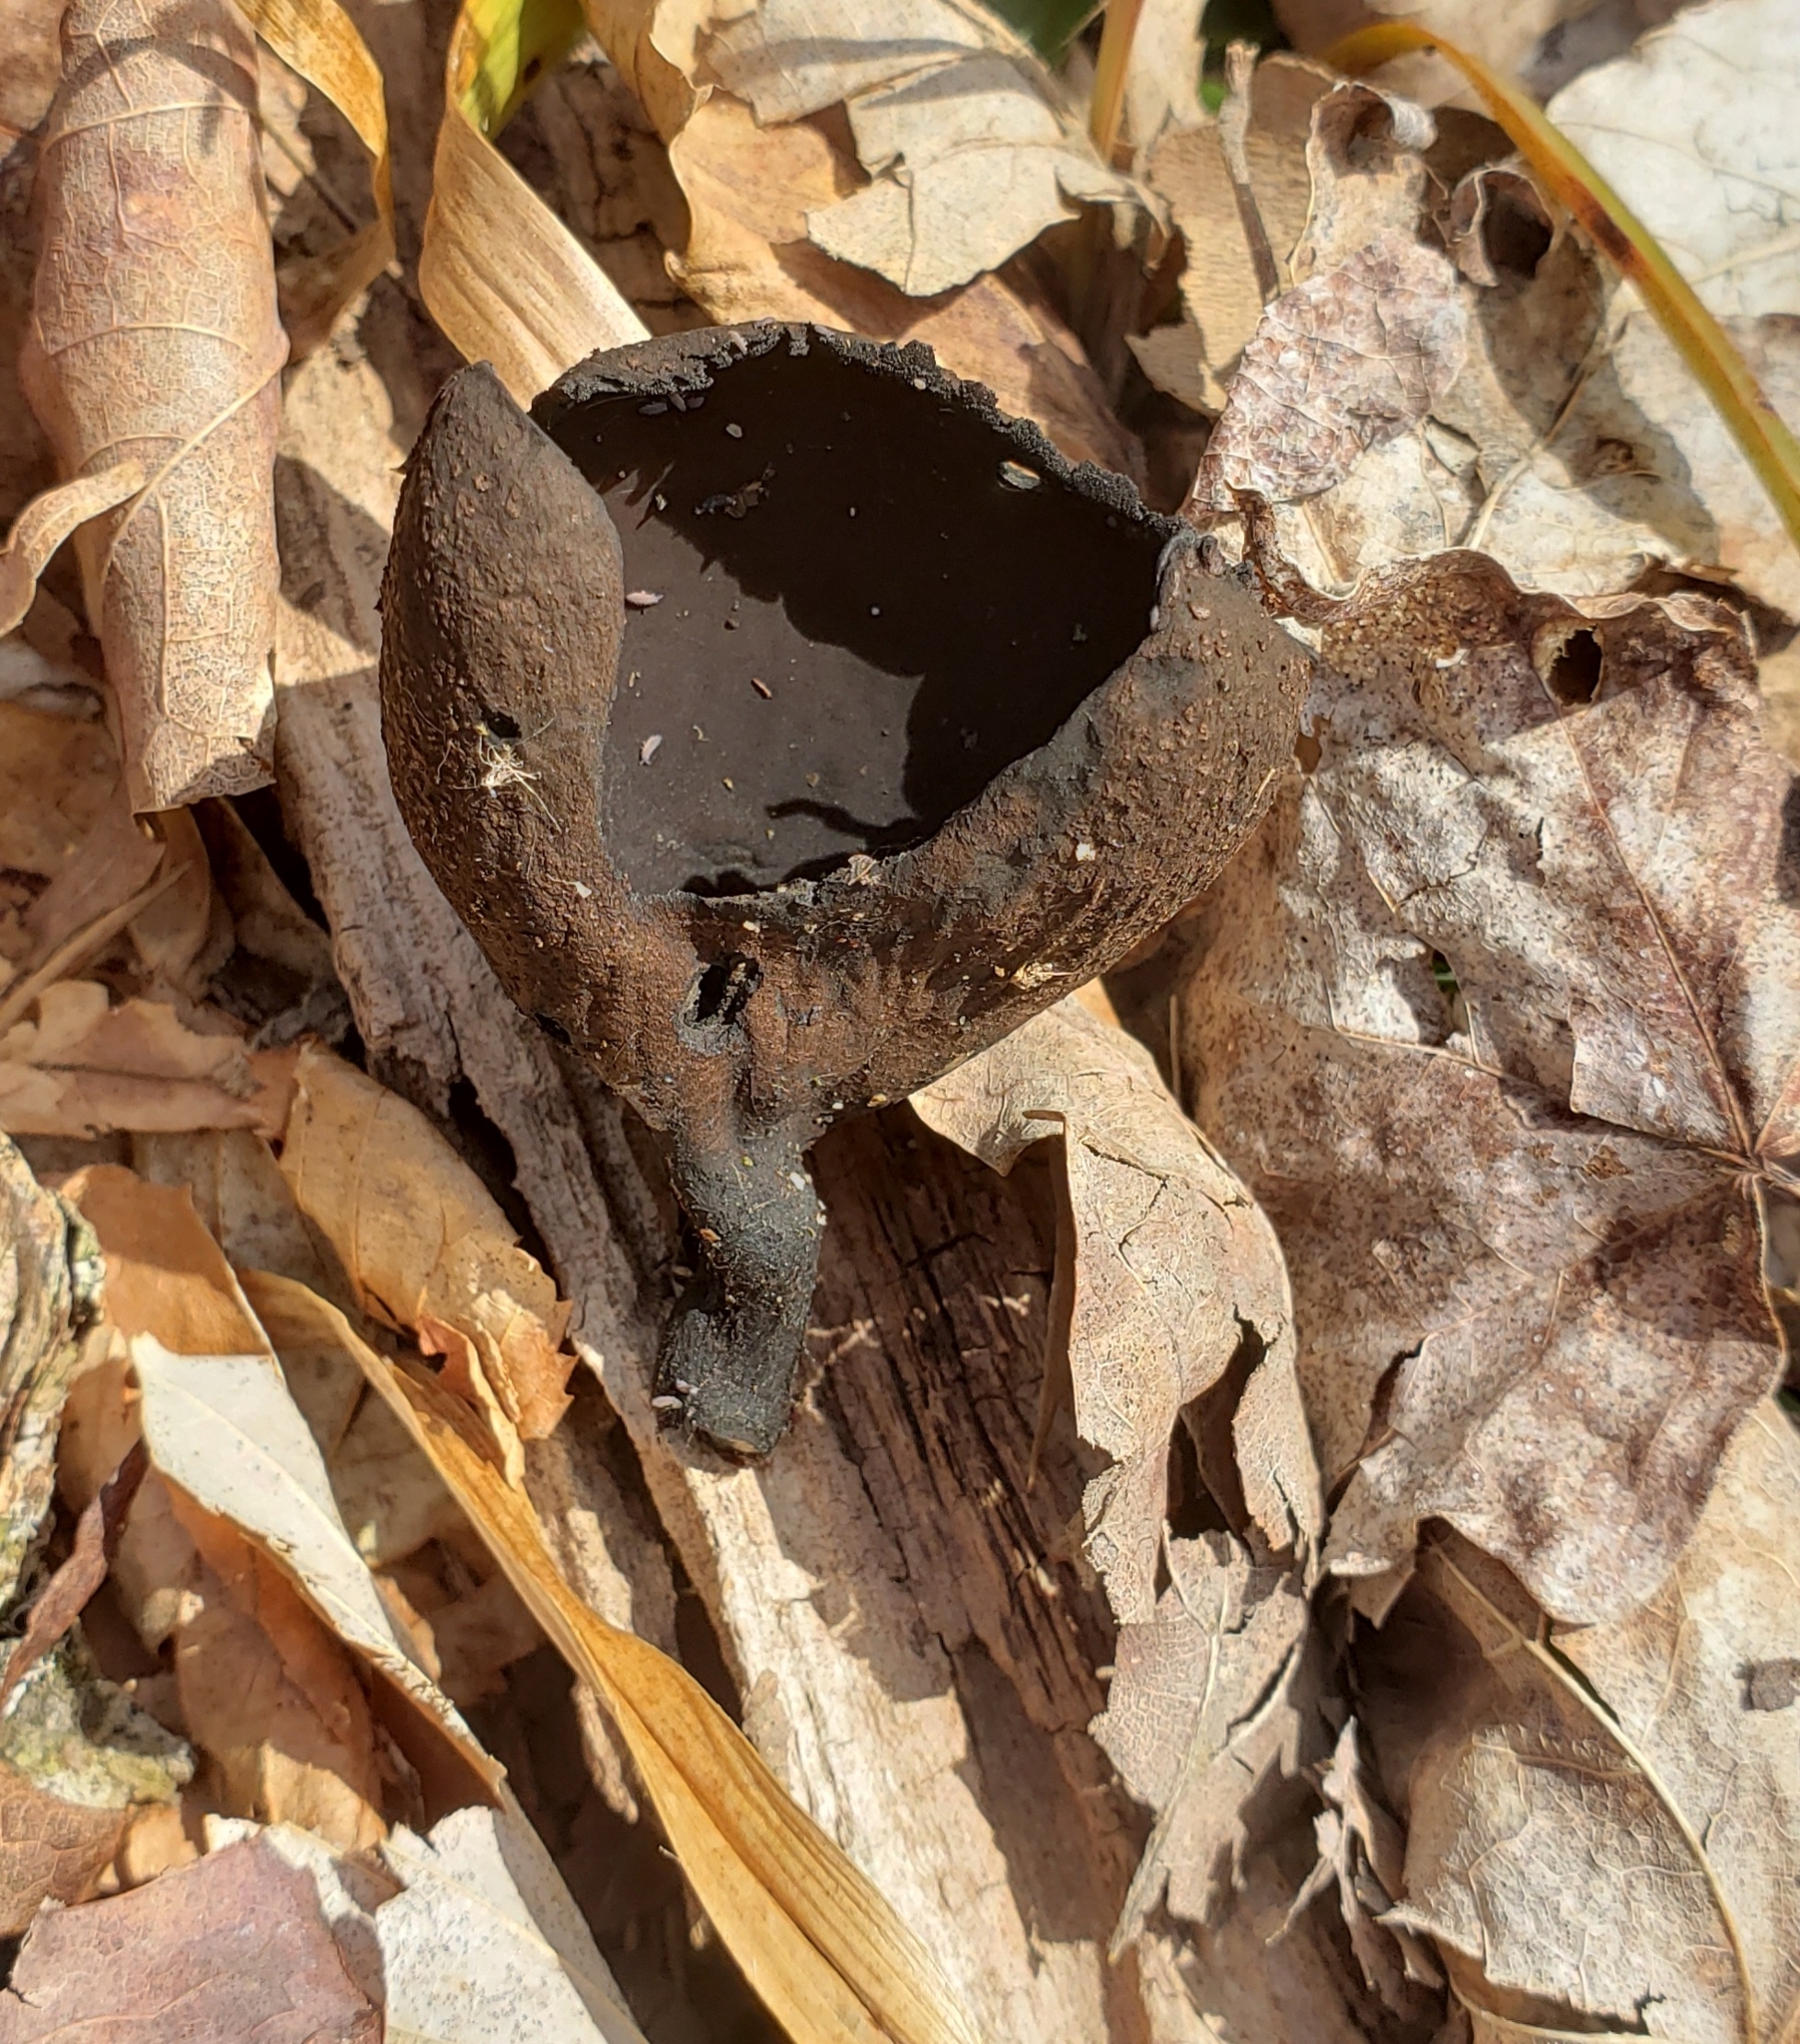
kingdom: Fungi
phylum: Ascomycota
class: Pezizomycetes
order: Pezizales
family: Sarcosomataceae
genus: Urnula
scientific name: Urnula craterium
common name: Devil's urn
